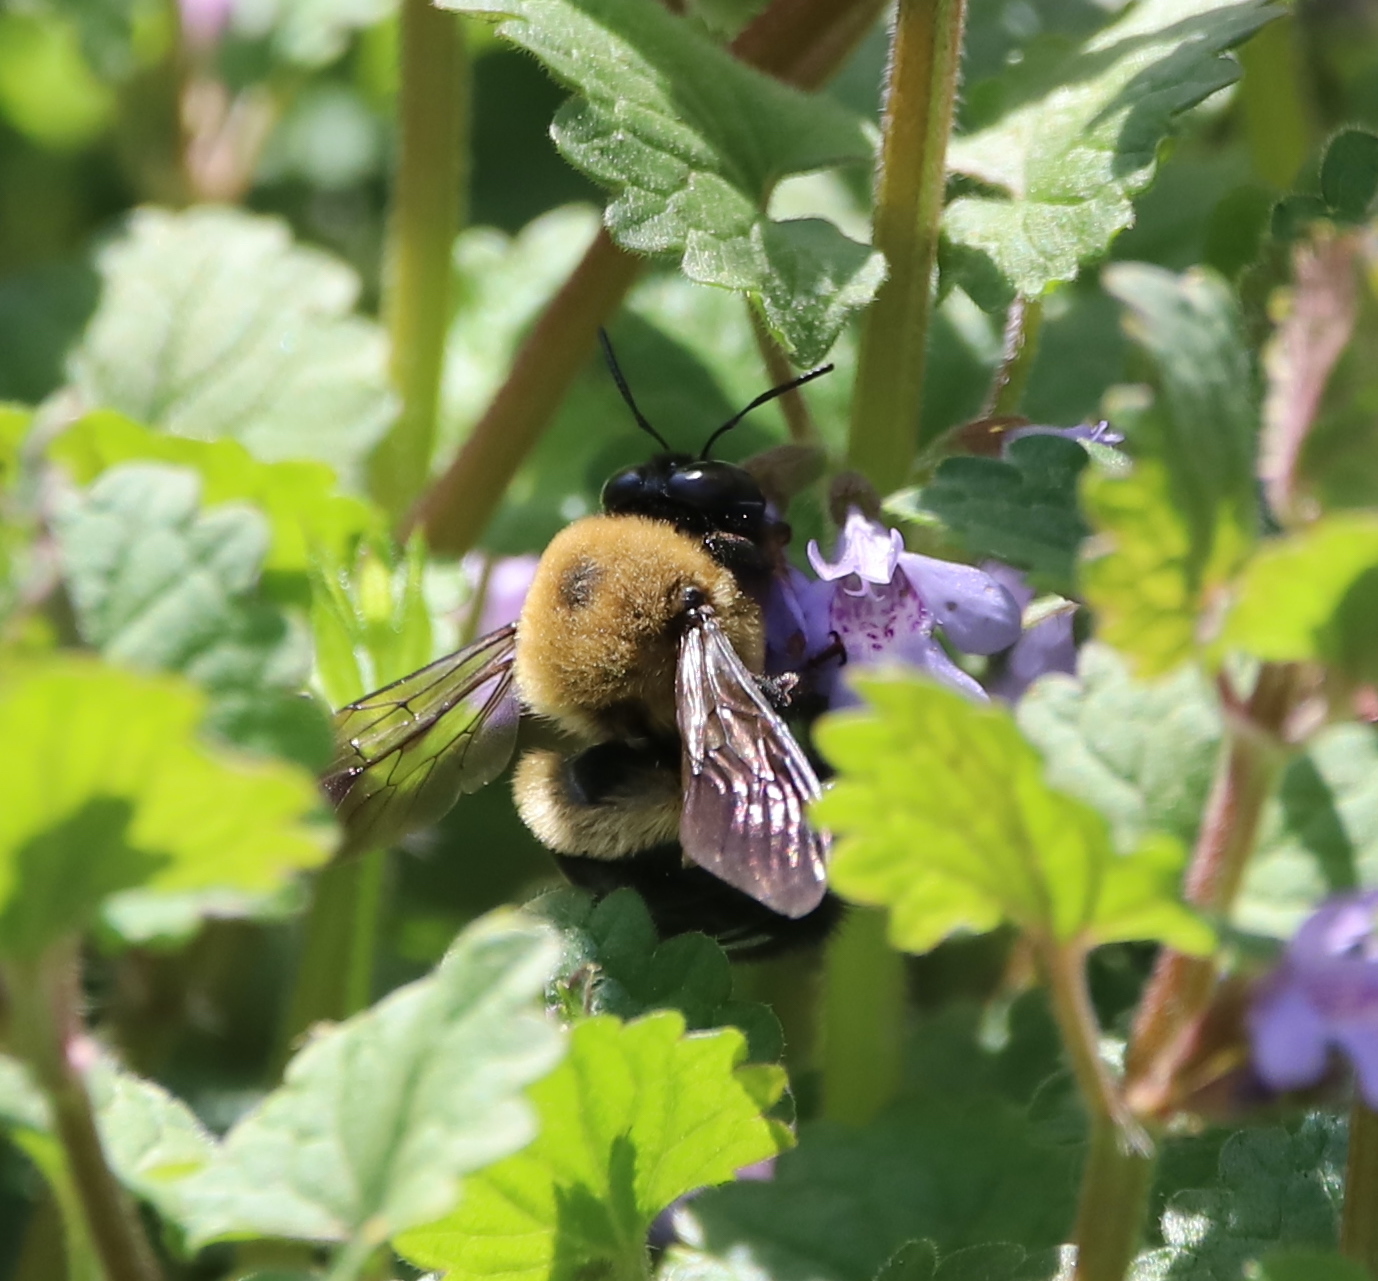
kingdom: Animalia
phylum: Arthropoda
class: Insecta
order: Hymenoptera
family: Apidae
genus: Xylocopa
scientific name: Xylocopa virginica
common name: Carpenter bee
